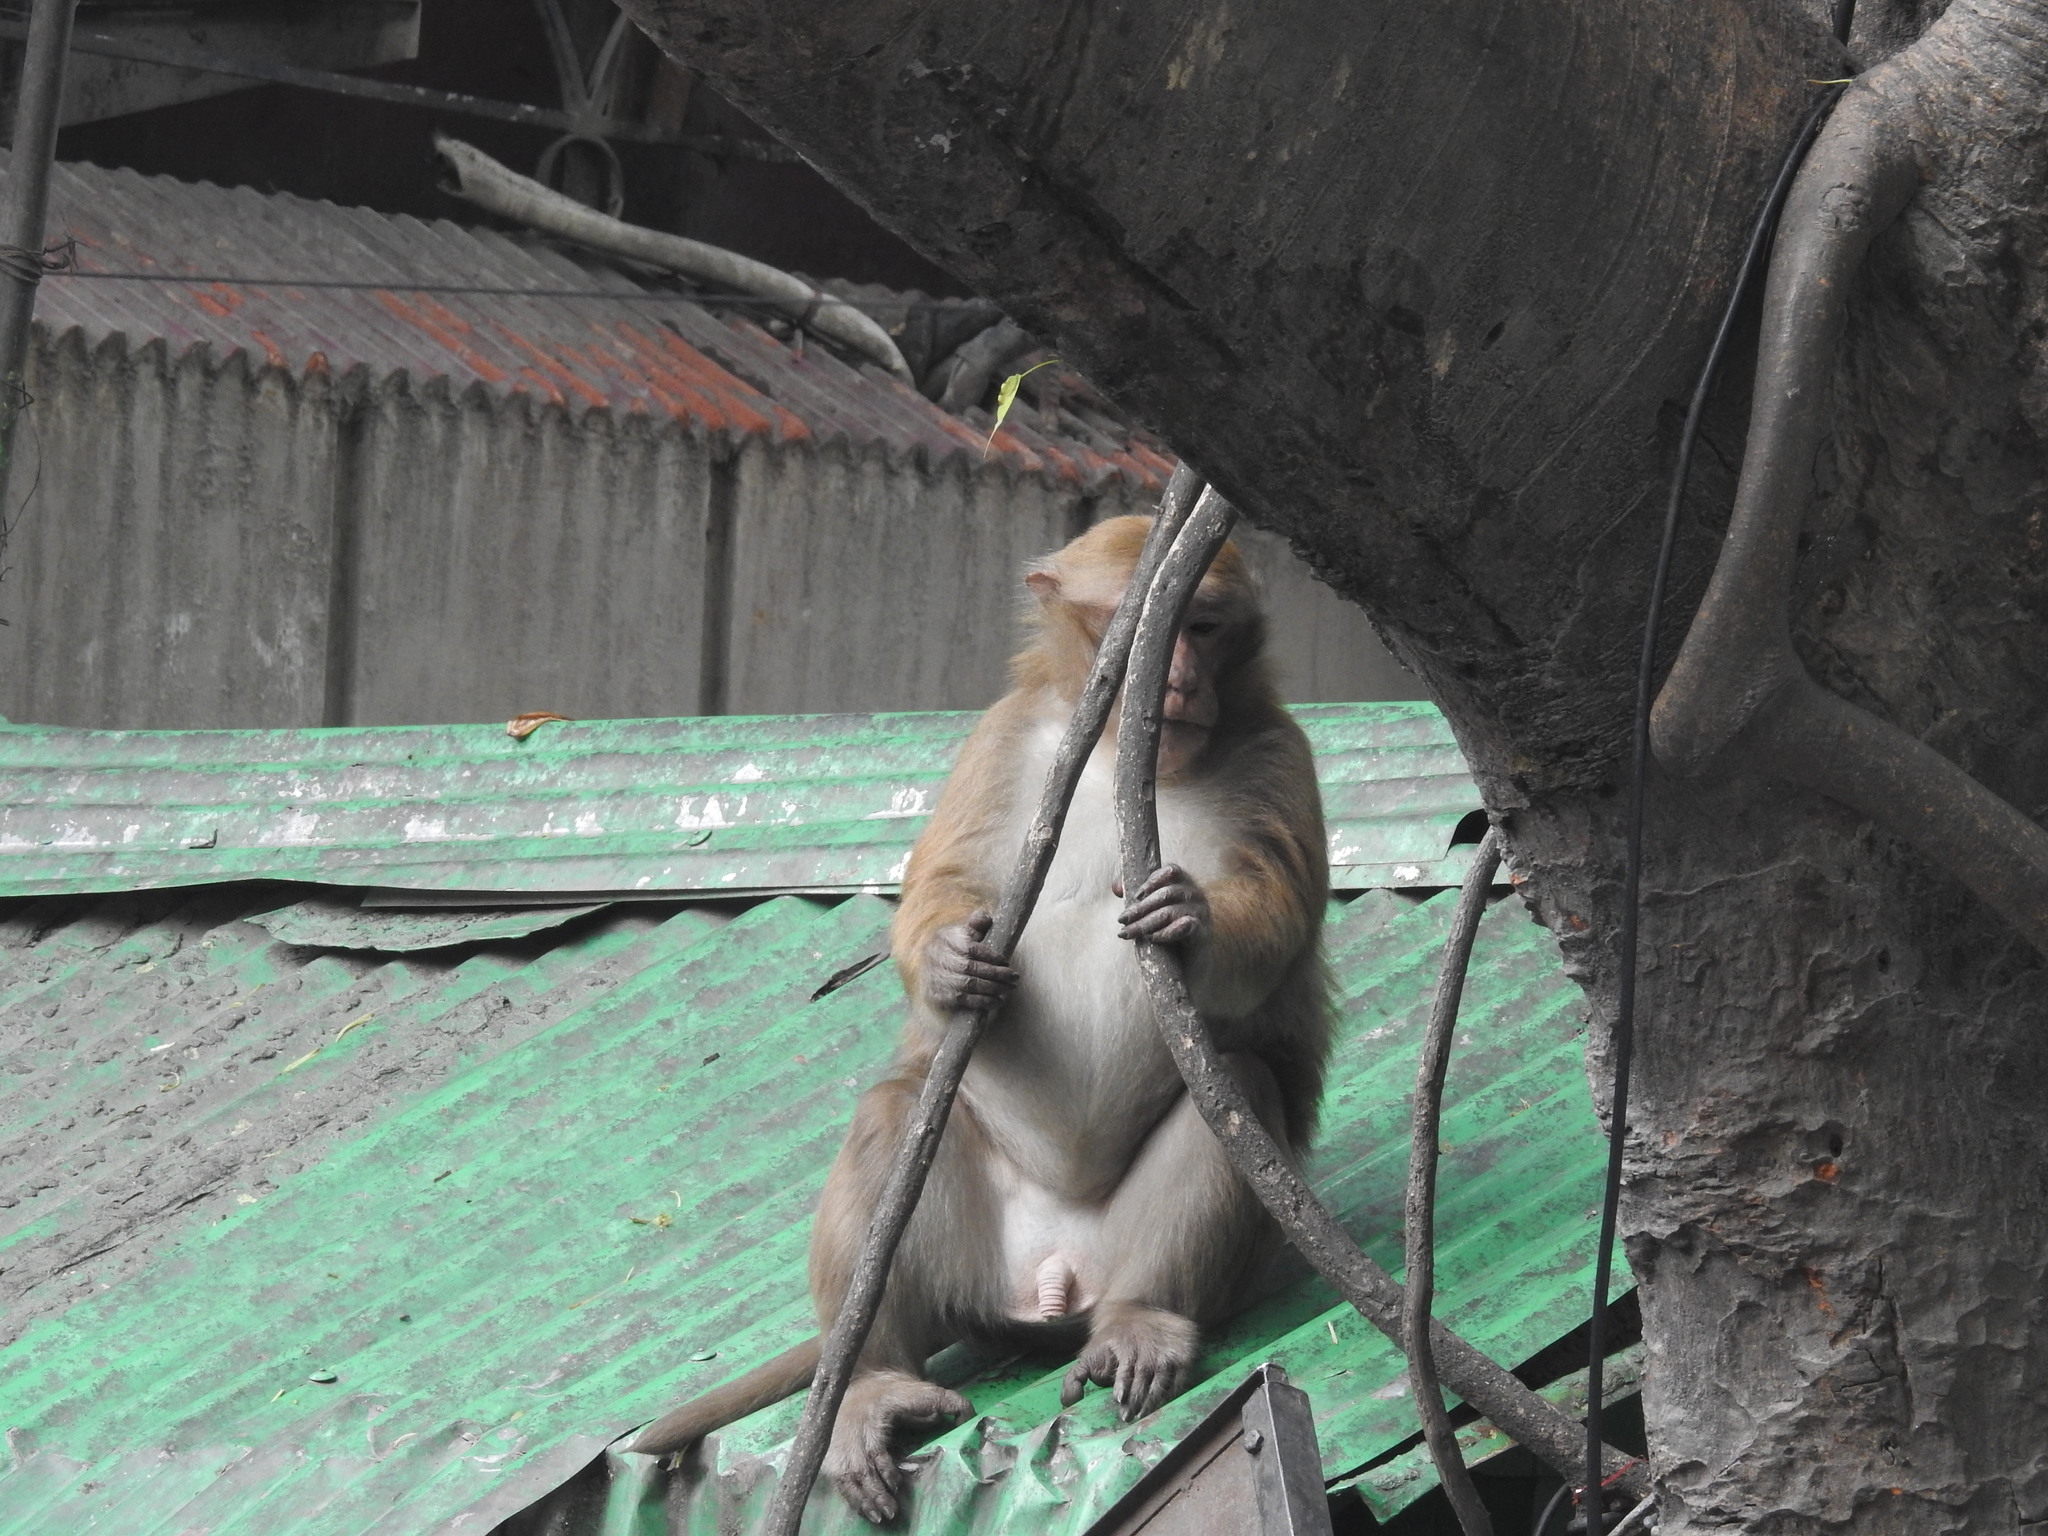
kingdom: Animalia
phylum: Chordata
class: Mammalia
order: Primates
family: Cercopithecidae
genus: Macaca
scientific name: Macaca assamensis
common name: Assam macaque
